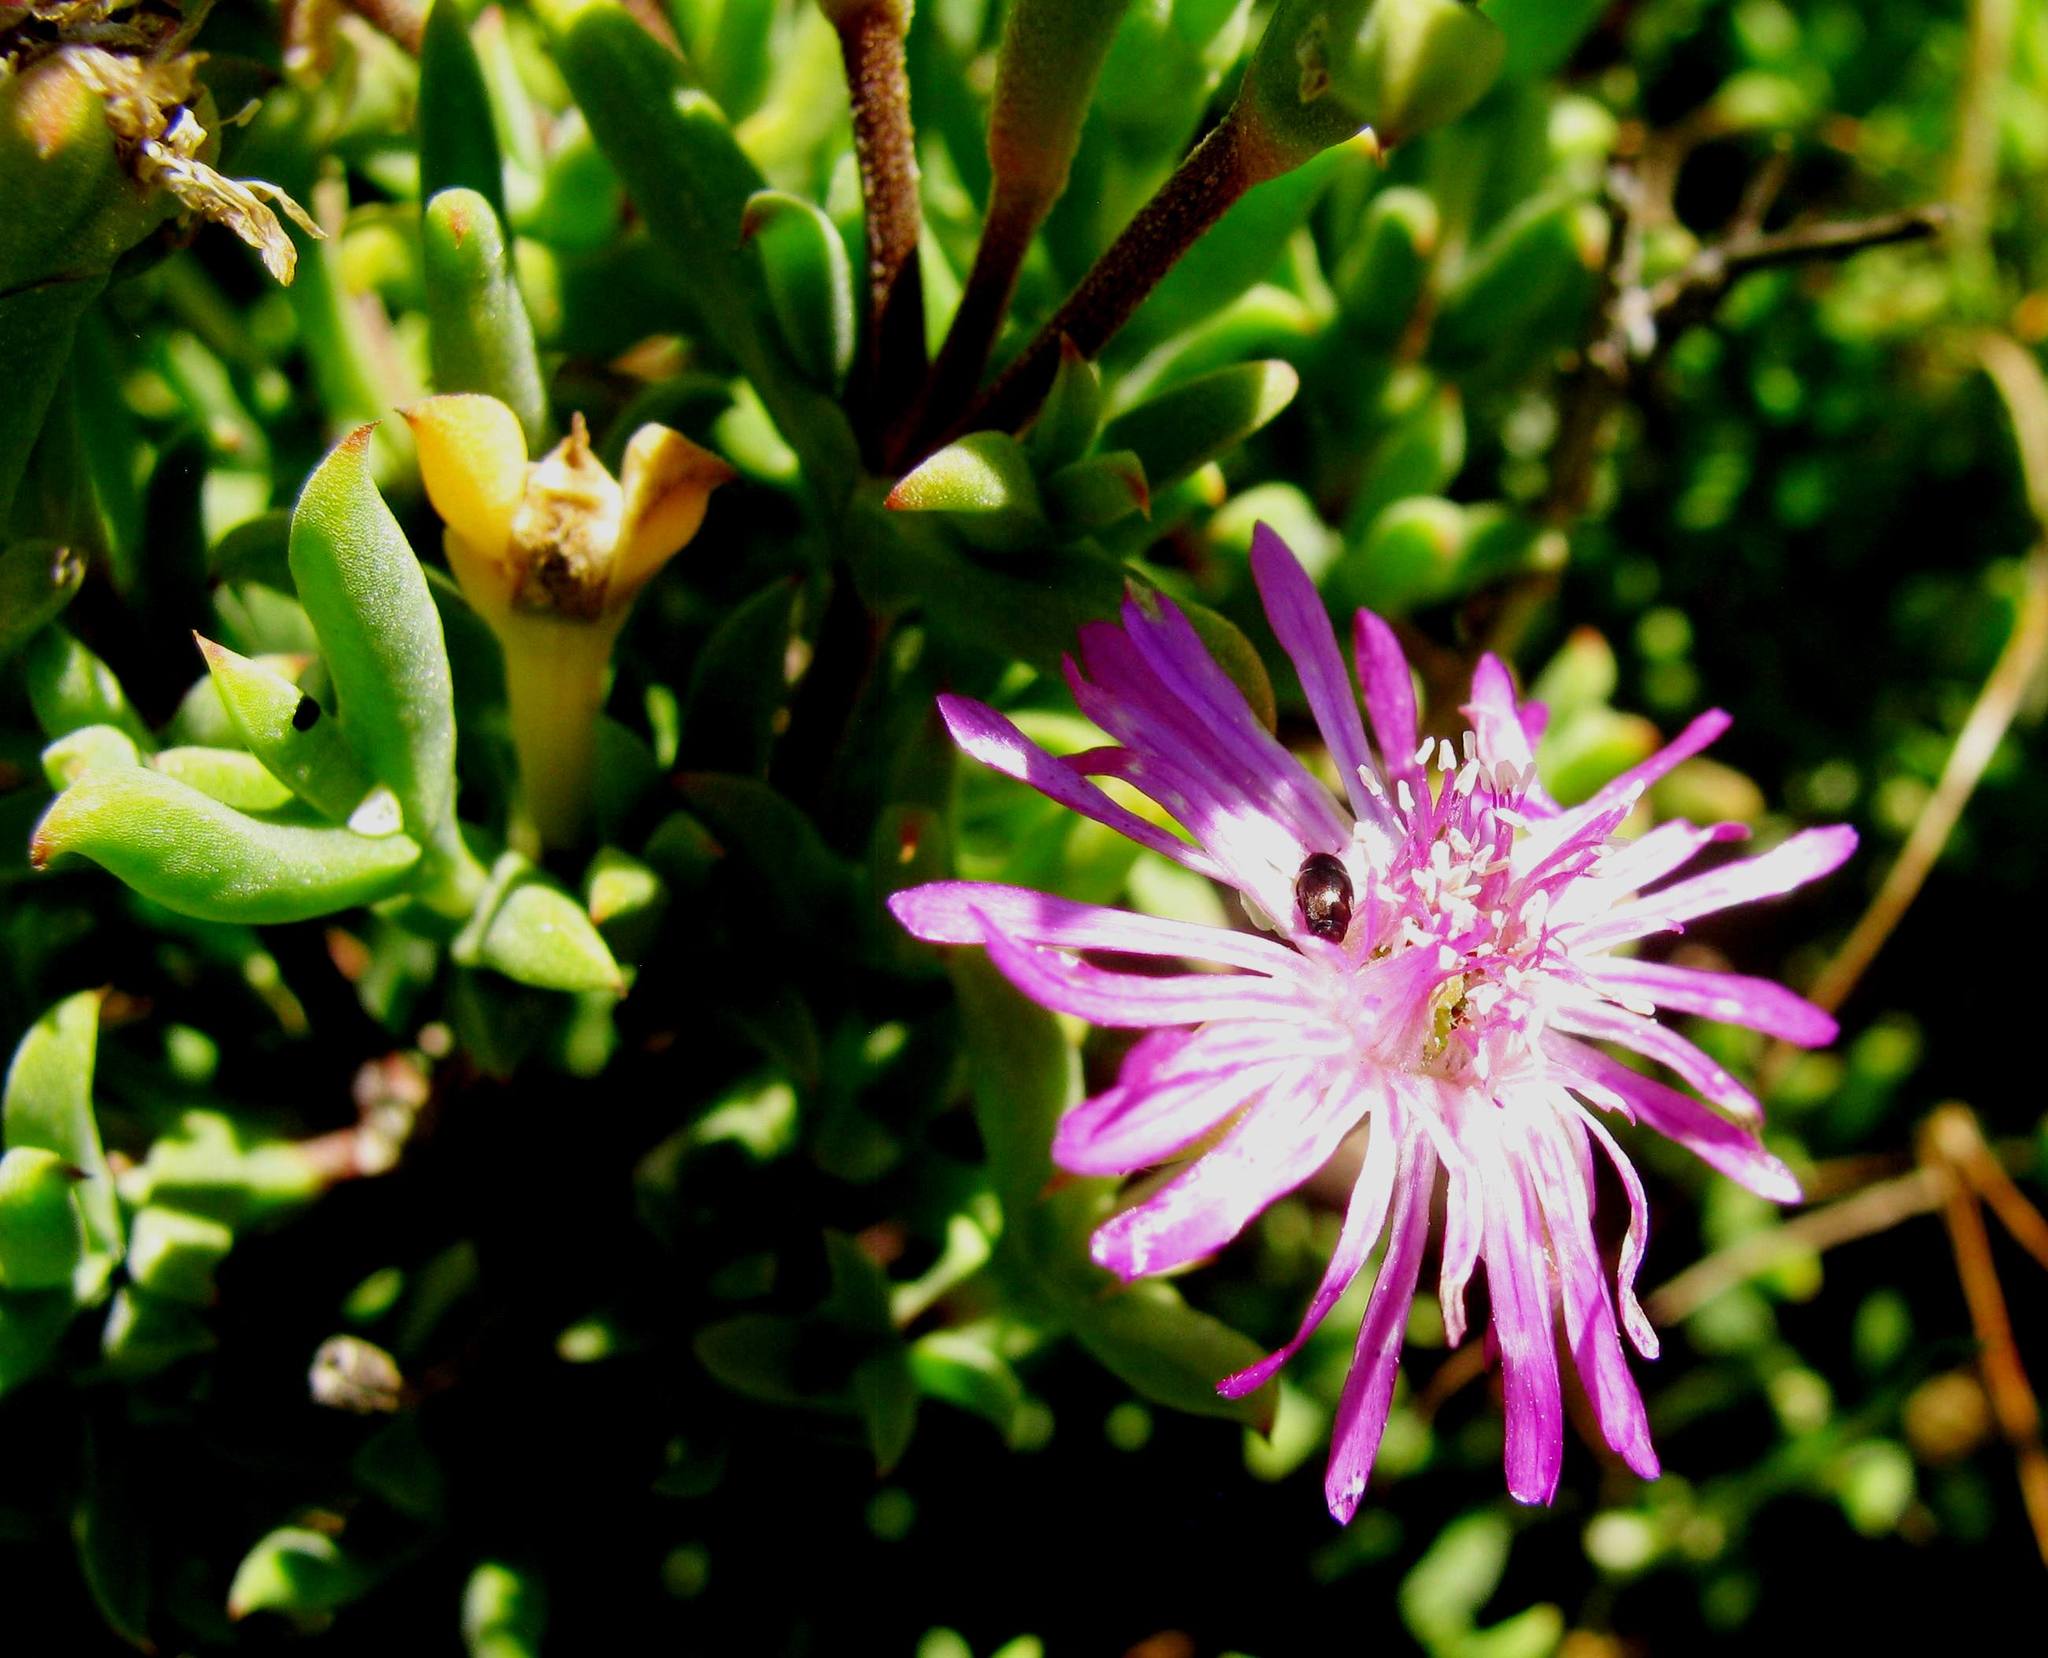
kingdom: Plantae
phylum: Tracheophyta
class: Magnoliopsida
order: Caryophyllales
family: Aizoaceae
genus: Delosperma
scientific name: Delosperma asperulum
